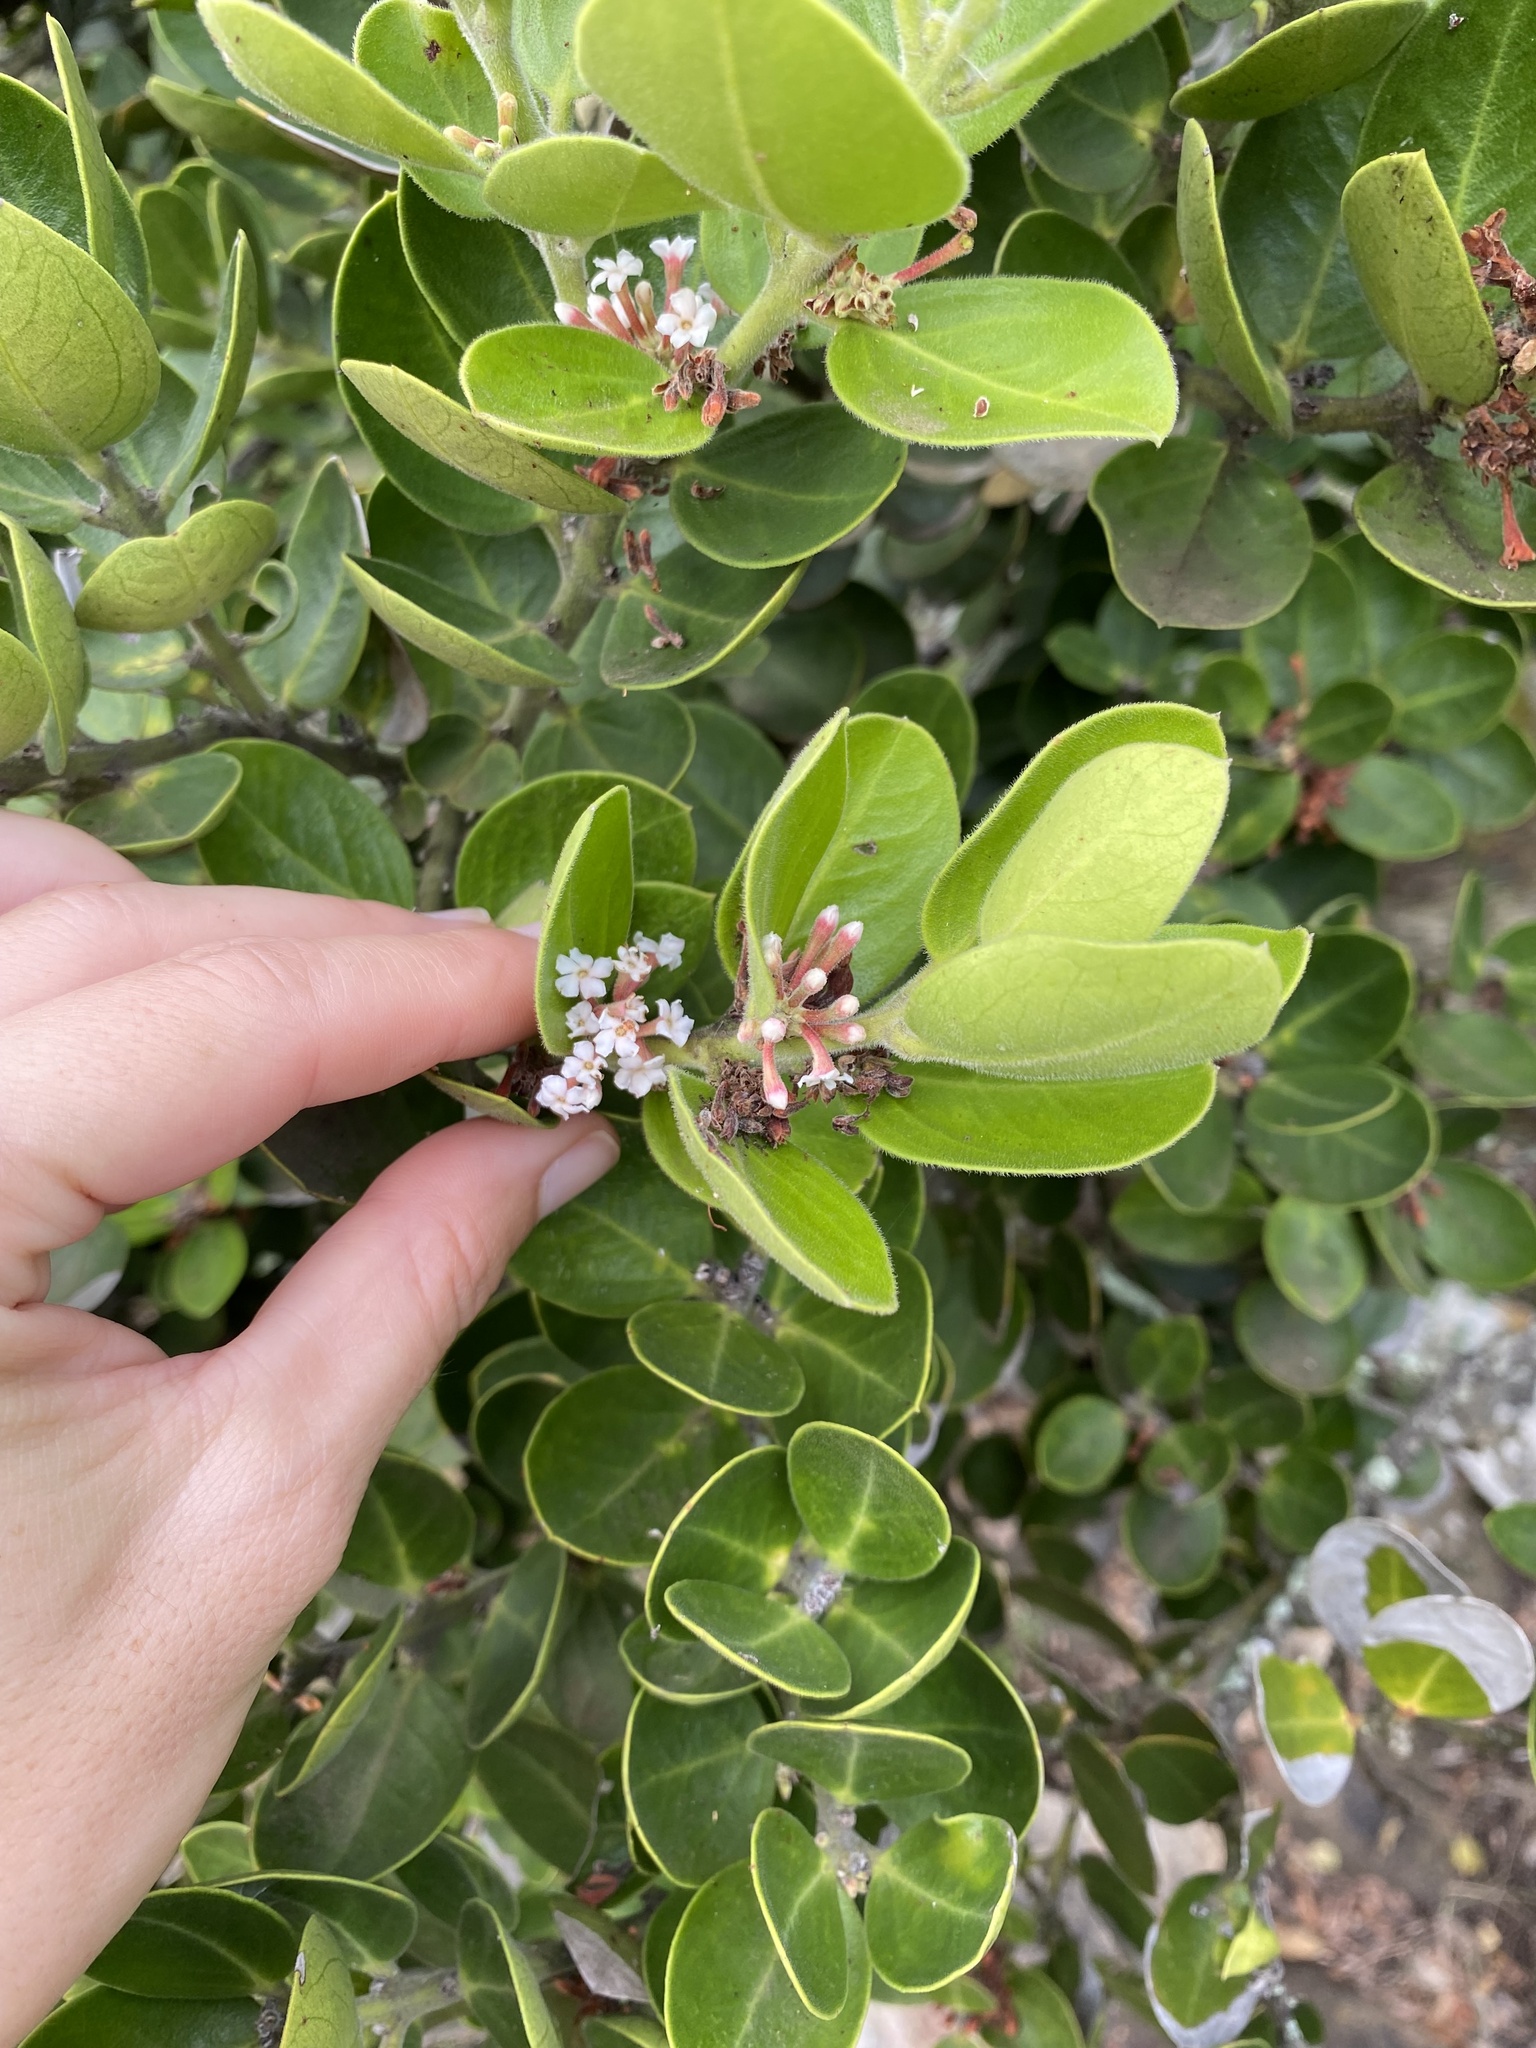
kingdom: Plantae
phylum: Tracheophyta
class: Magnoliopsida
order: Gentianales
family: Apocynaceae
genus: Acokanthera
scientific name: Acokanthera rotundata
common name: Round-leaved poison-bush
